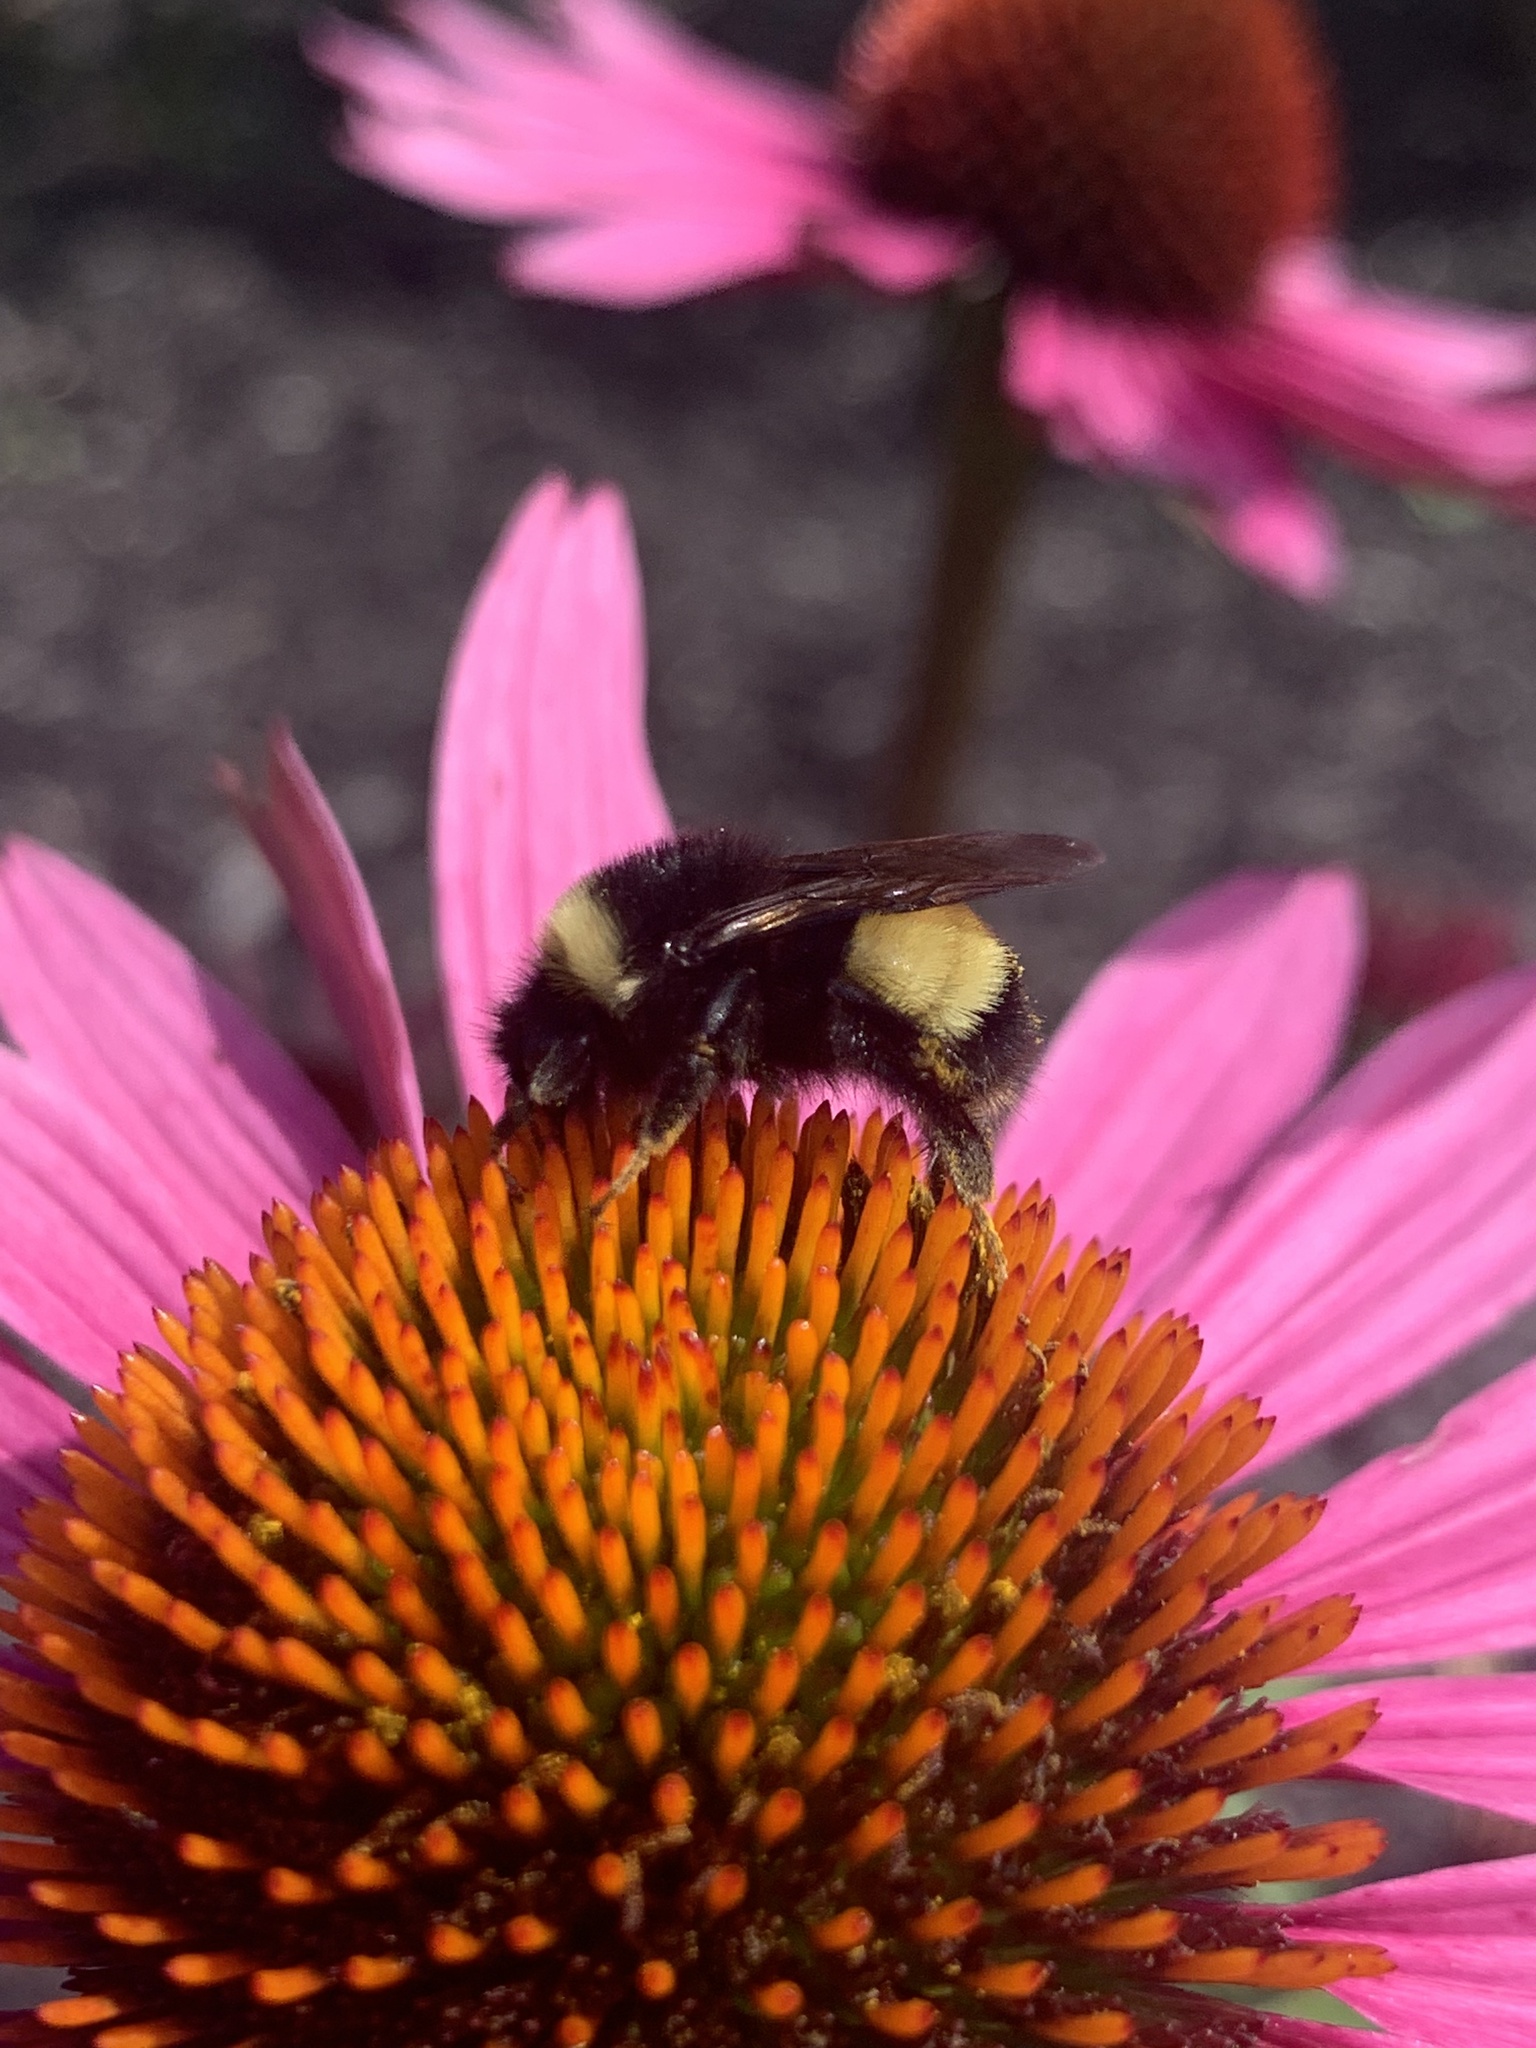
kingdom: Animalia
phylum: Arthropoda
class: Insecta
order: Hymenoptera
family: Apidae
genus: Bombus
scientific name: Bombus terricola
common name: Yellow-banded bumble bee
